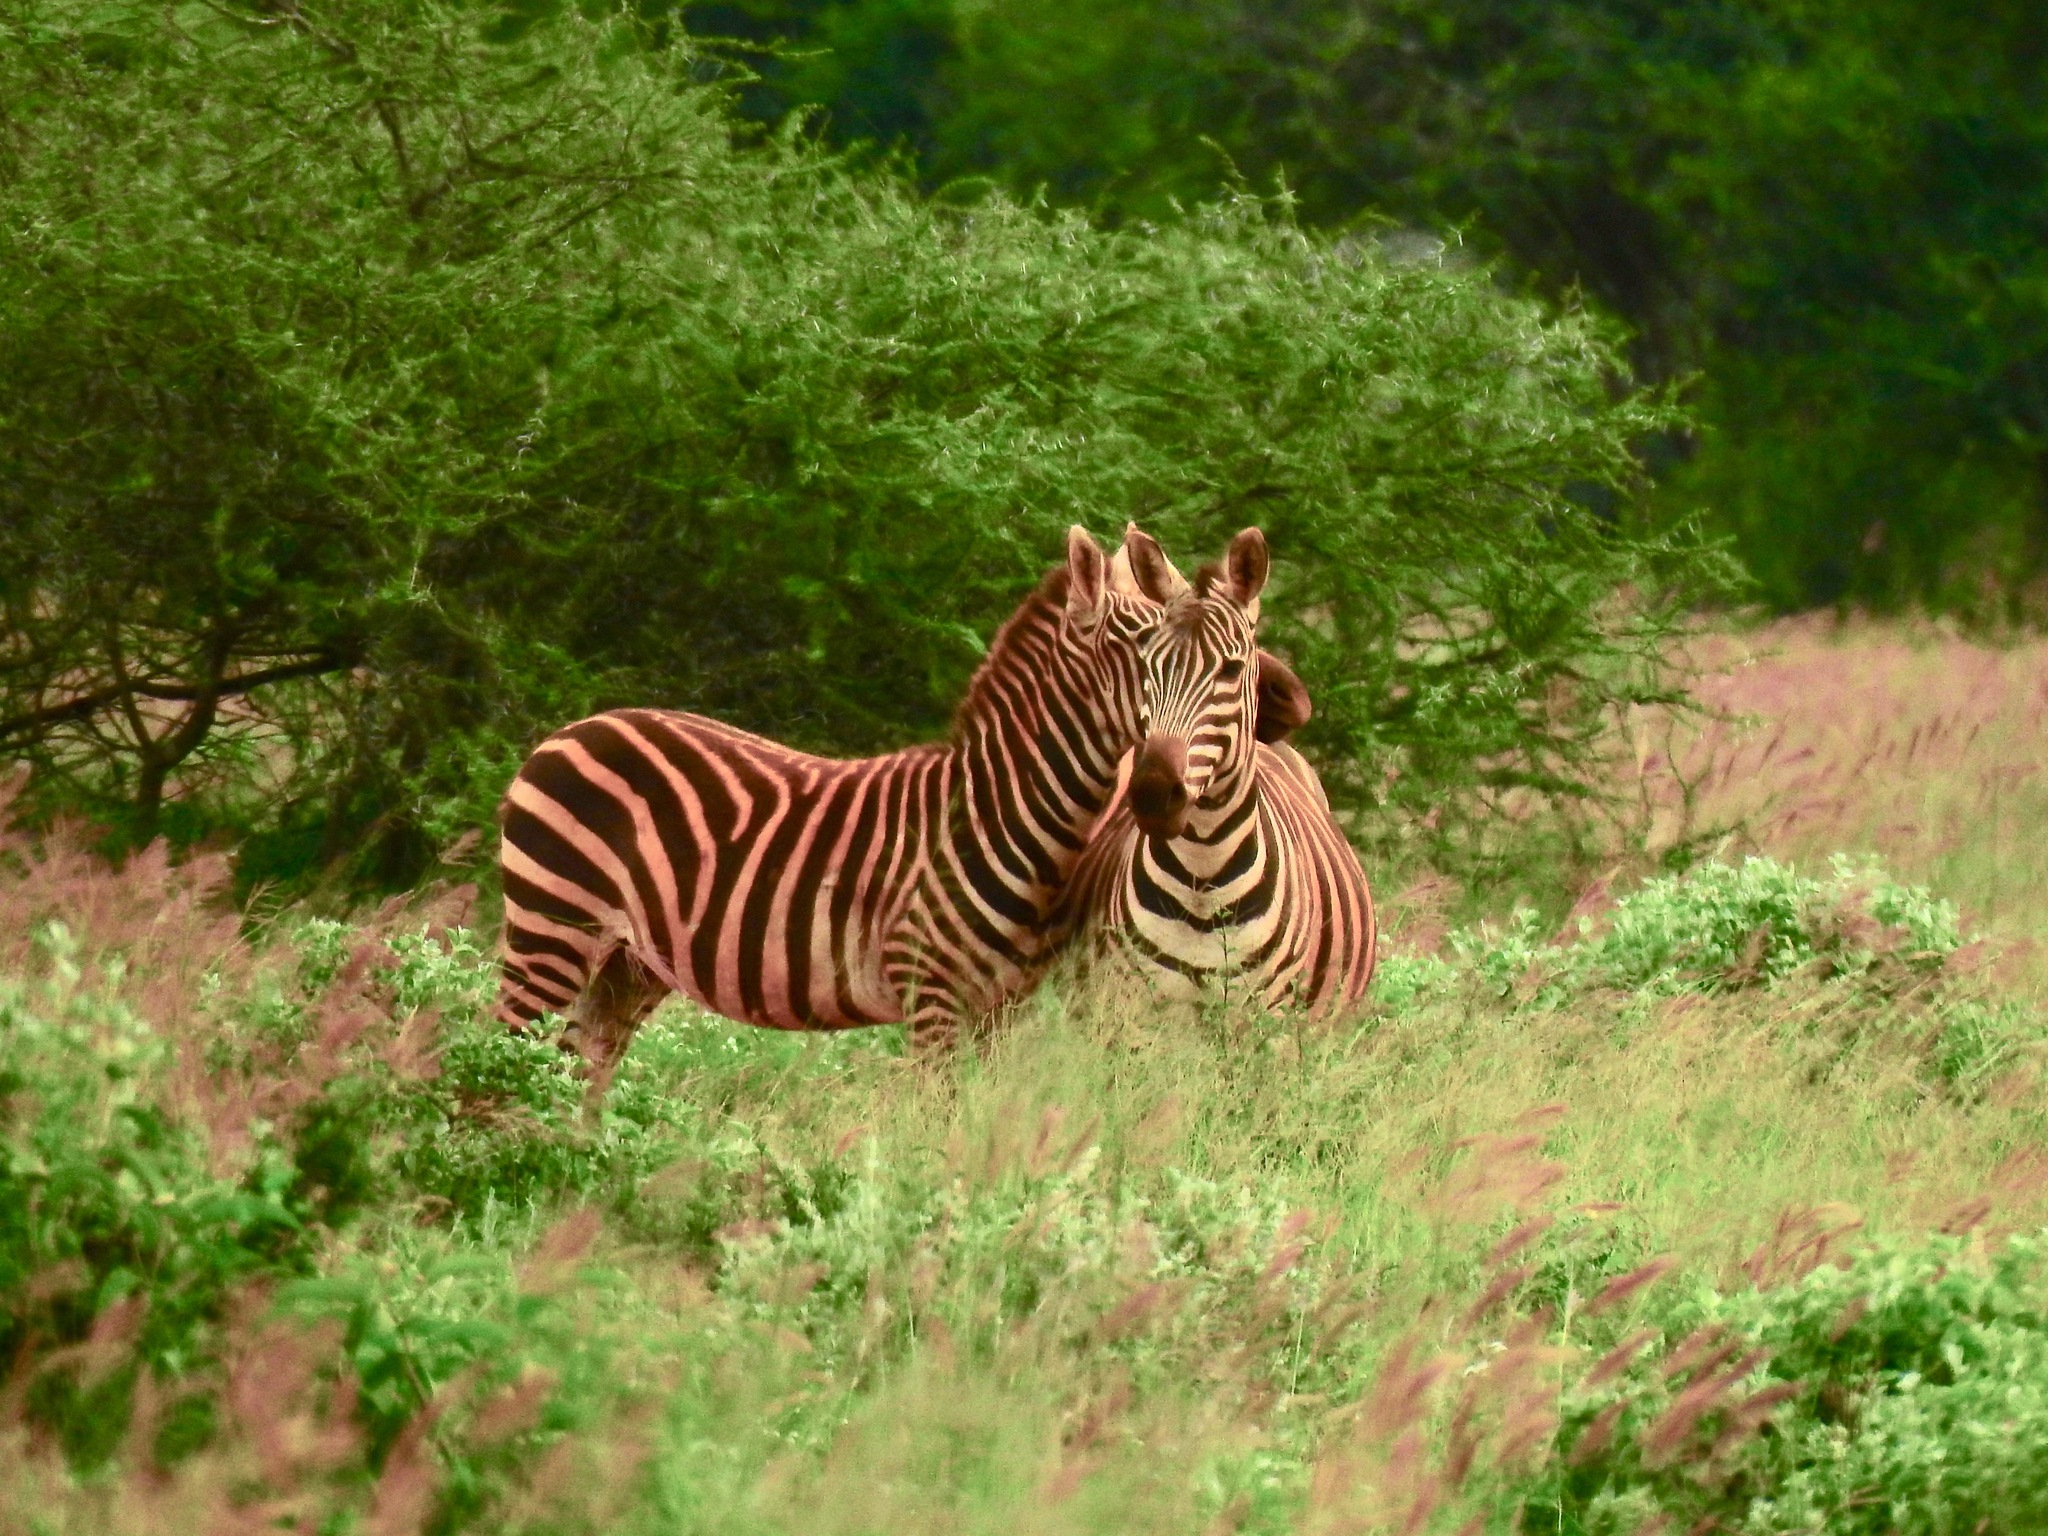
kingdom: Animalia
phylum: Chordata
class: Mammalia
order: Perissodactyla
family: Equidae
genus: Equus
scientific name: Equus quagga
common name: Plains zebra
